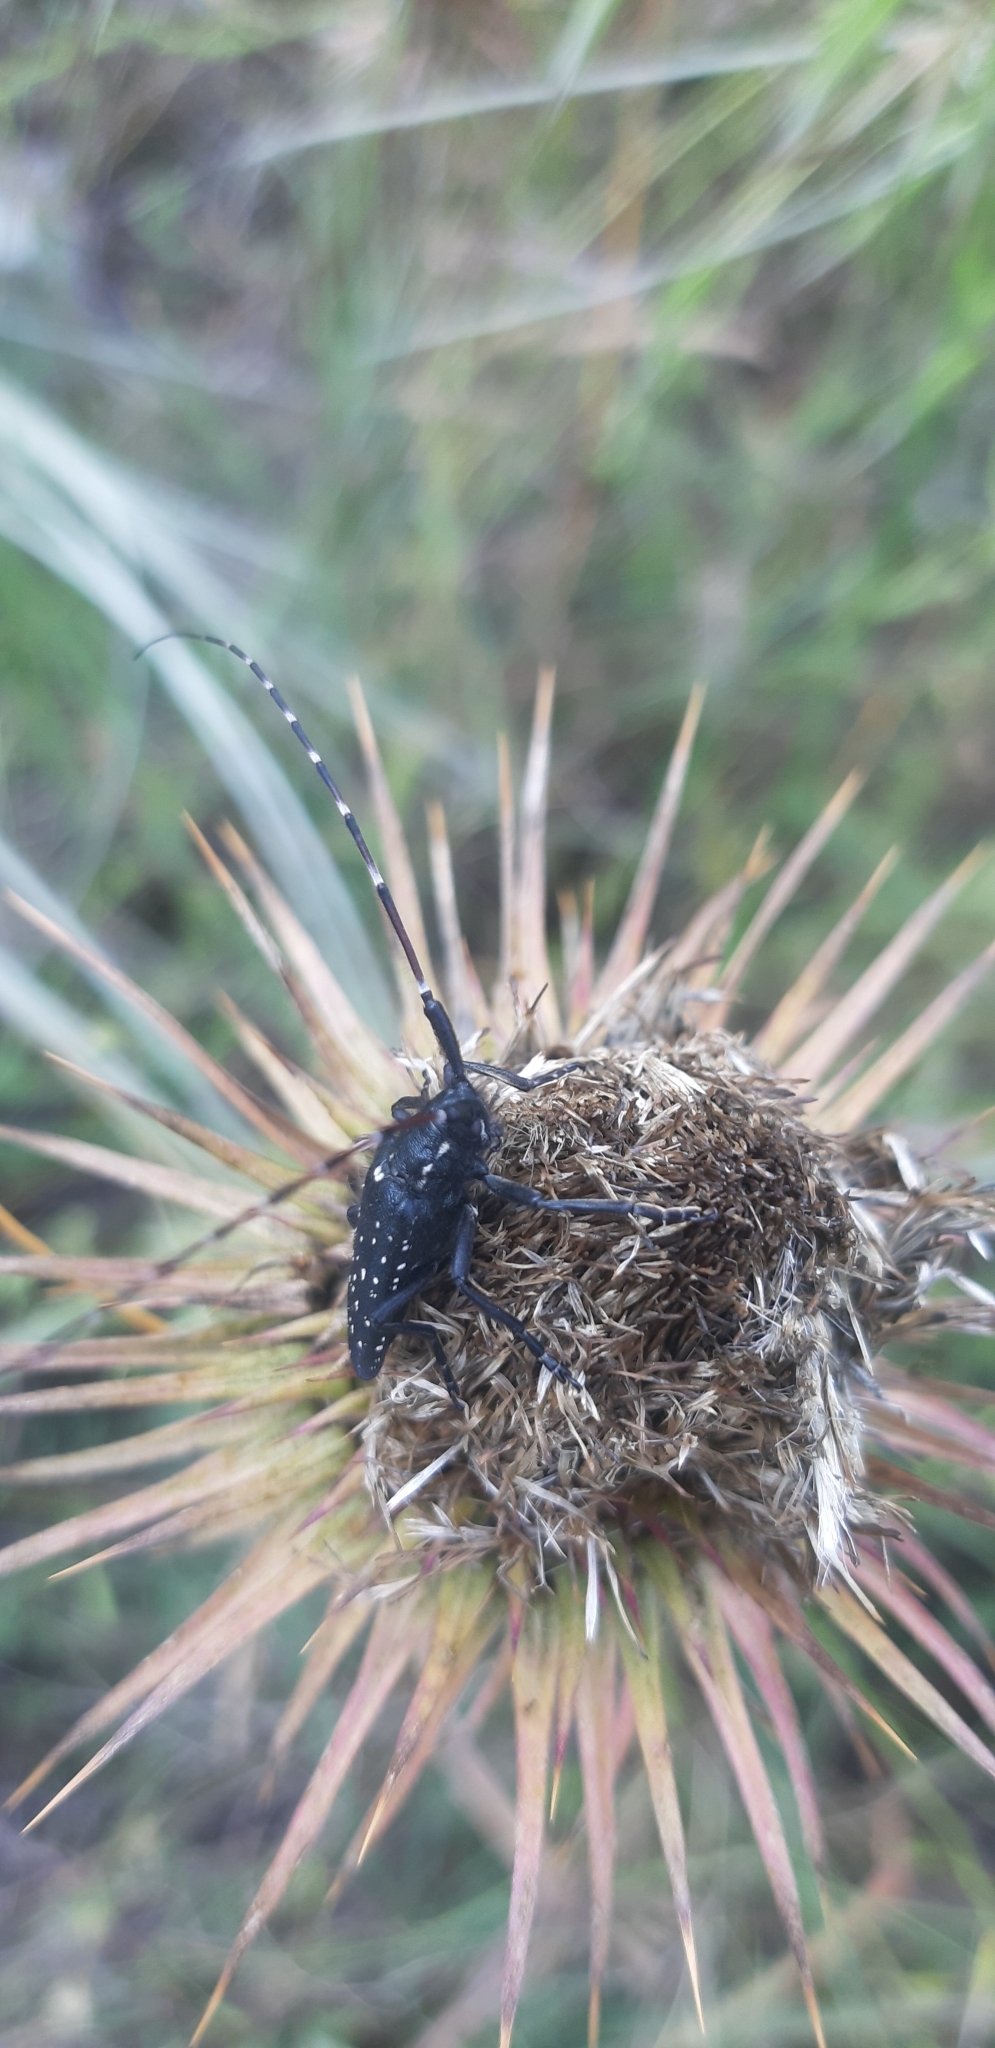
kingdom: Animalia
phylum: Arthropoda
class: Insecta
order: Coleoptera
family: Cerambycidae
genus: Agapanthia
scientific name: Agapanthia irrorata
